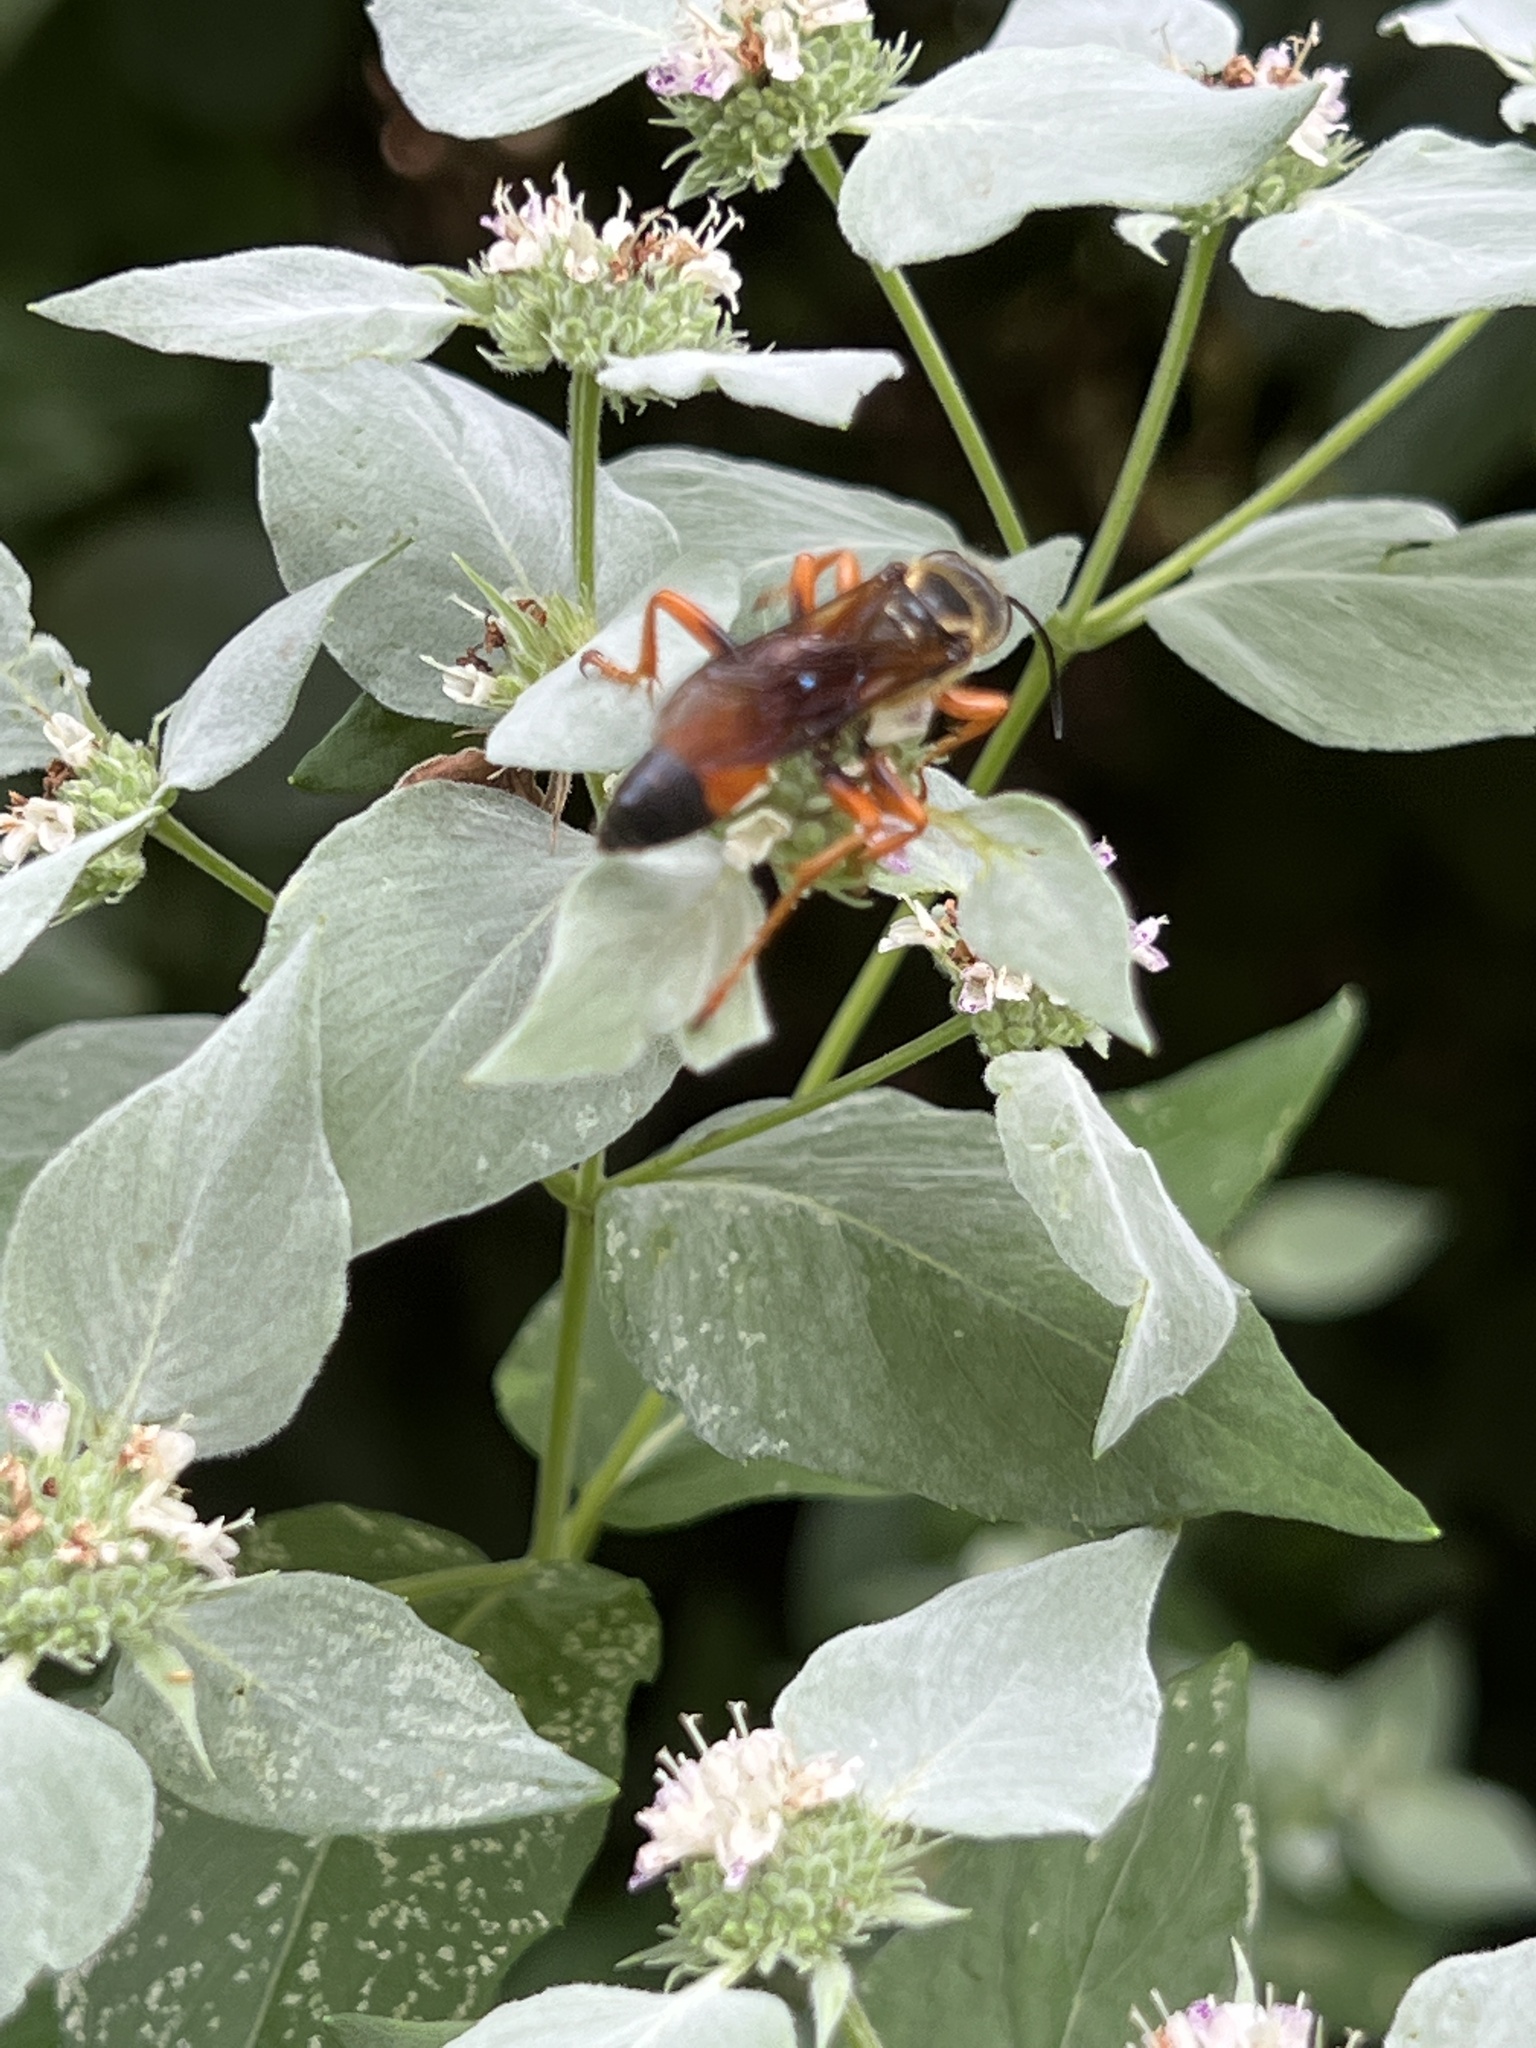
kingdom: Animalia
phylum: Arthropoda
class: Insecta
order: Hymenoptera
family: Sphecidae
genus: Sphex
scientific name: Sphex ichneumoneus
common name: Great golden digger wasp
